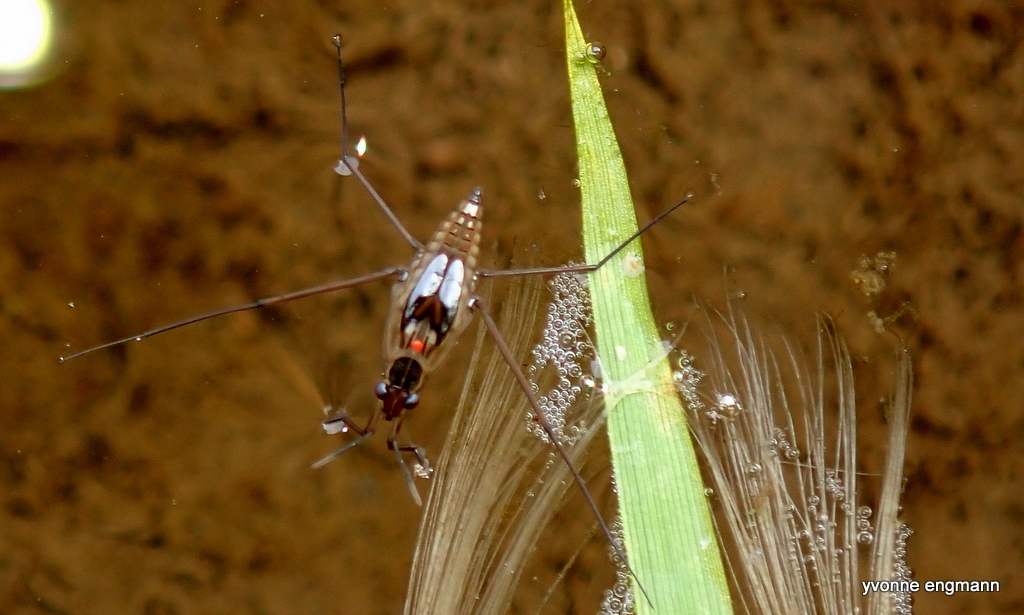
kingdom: Animalia
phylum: Arthropoda
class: Insecta
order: Hemiptera
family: Gerridae
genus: Gerris
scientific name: Gerris
